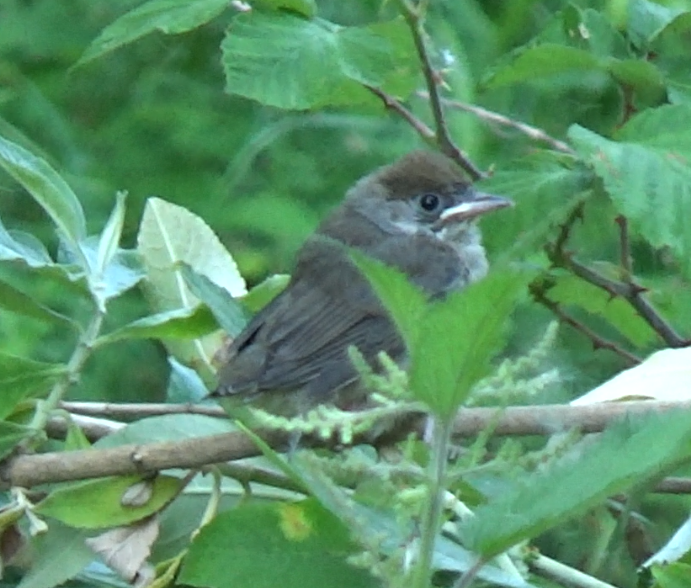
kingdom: Animalia
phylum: Chordata
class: Aves
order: Passeriformes
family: Sylviidae
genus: Sylvia
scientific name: Sylvia atricapilla
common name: Eurasian blackcap
